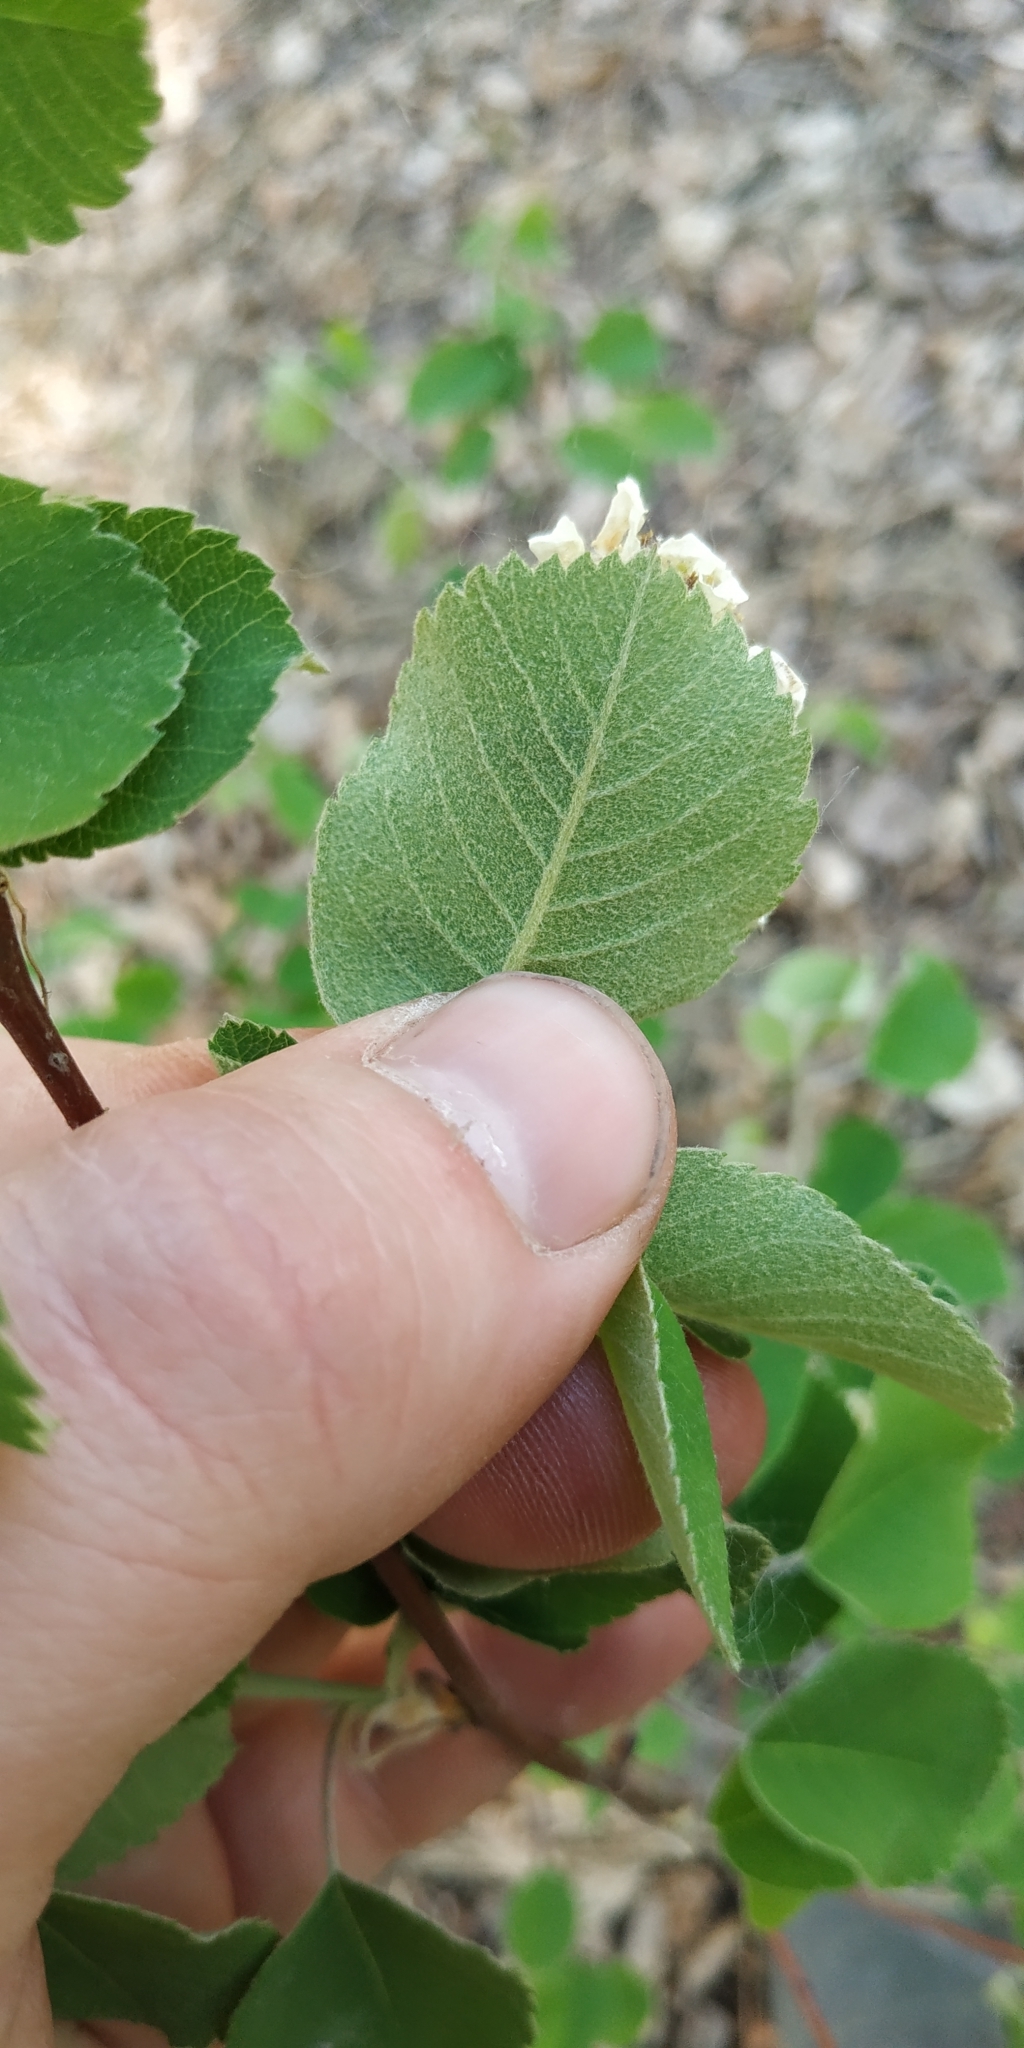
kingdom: Plantae
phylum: Tracheophyta
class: Magnoliopsida
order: Rosales
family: Rosaceae
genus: Amelanchier
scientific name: Amelanchier alnifolia
